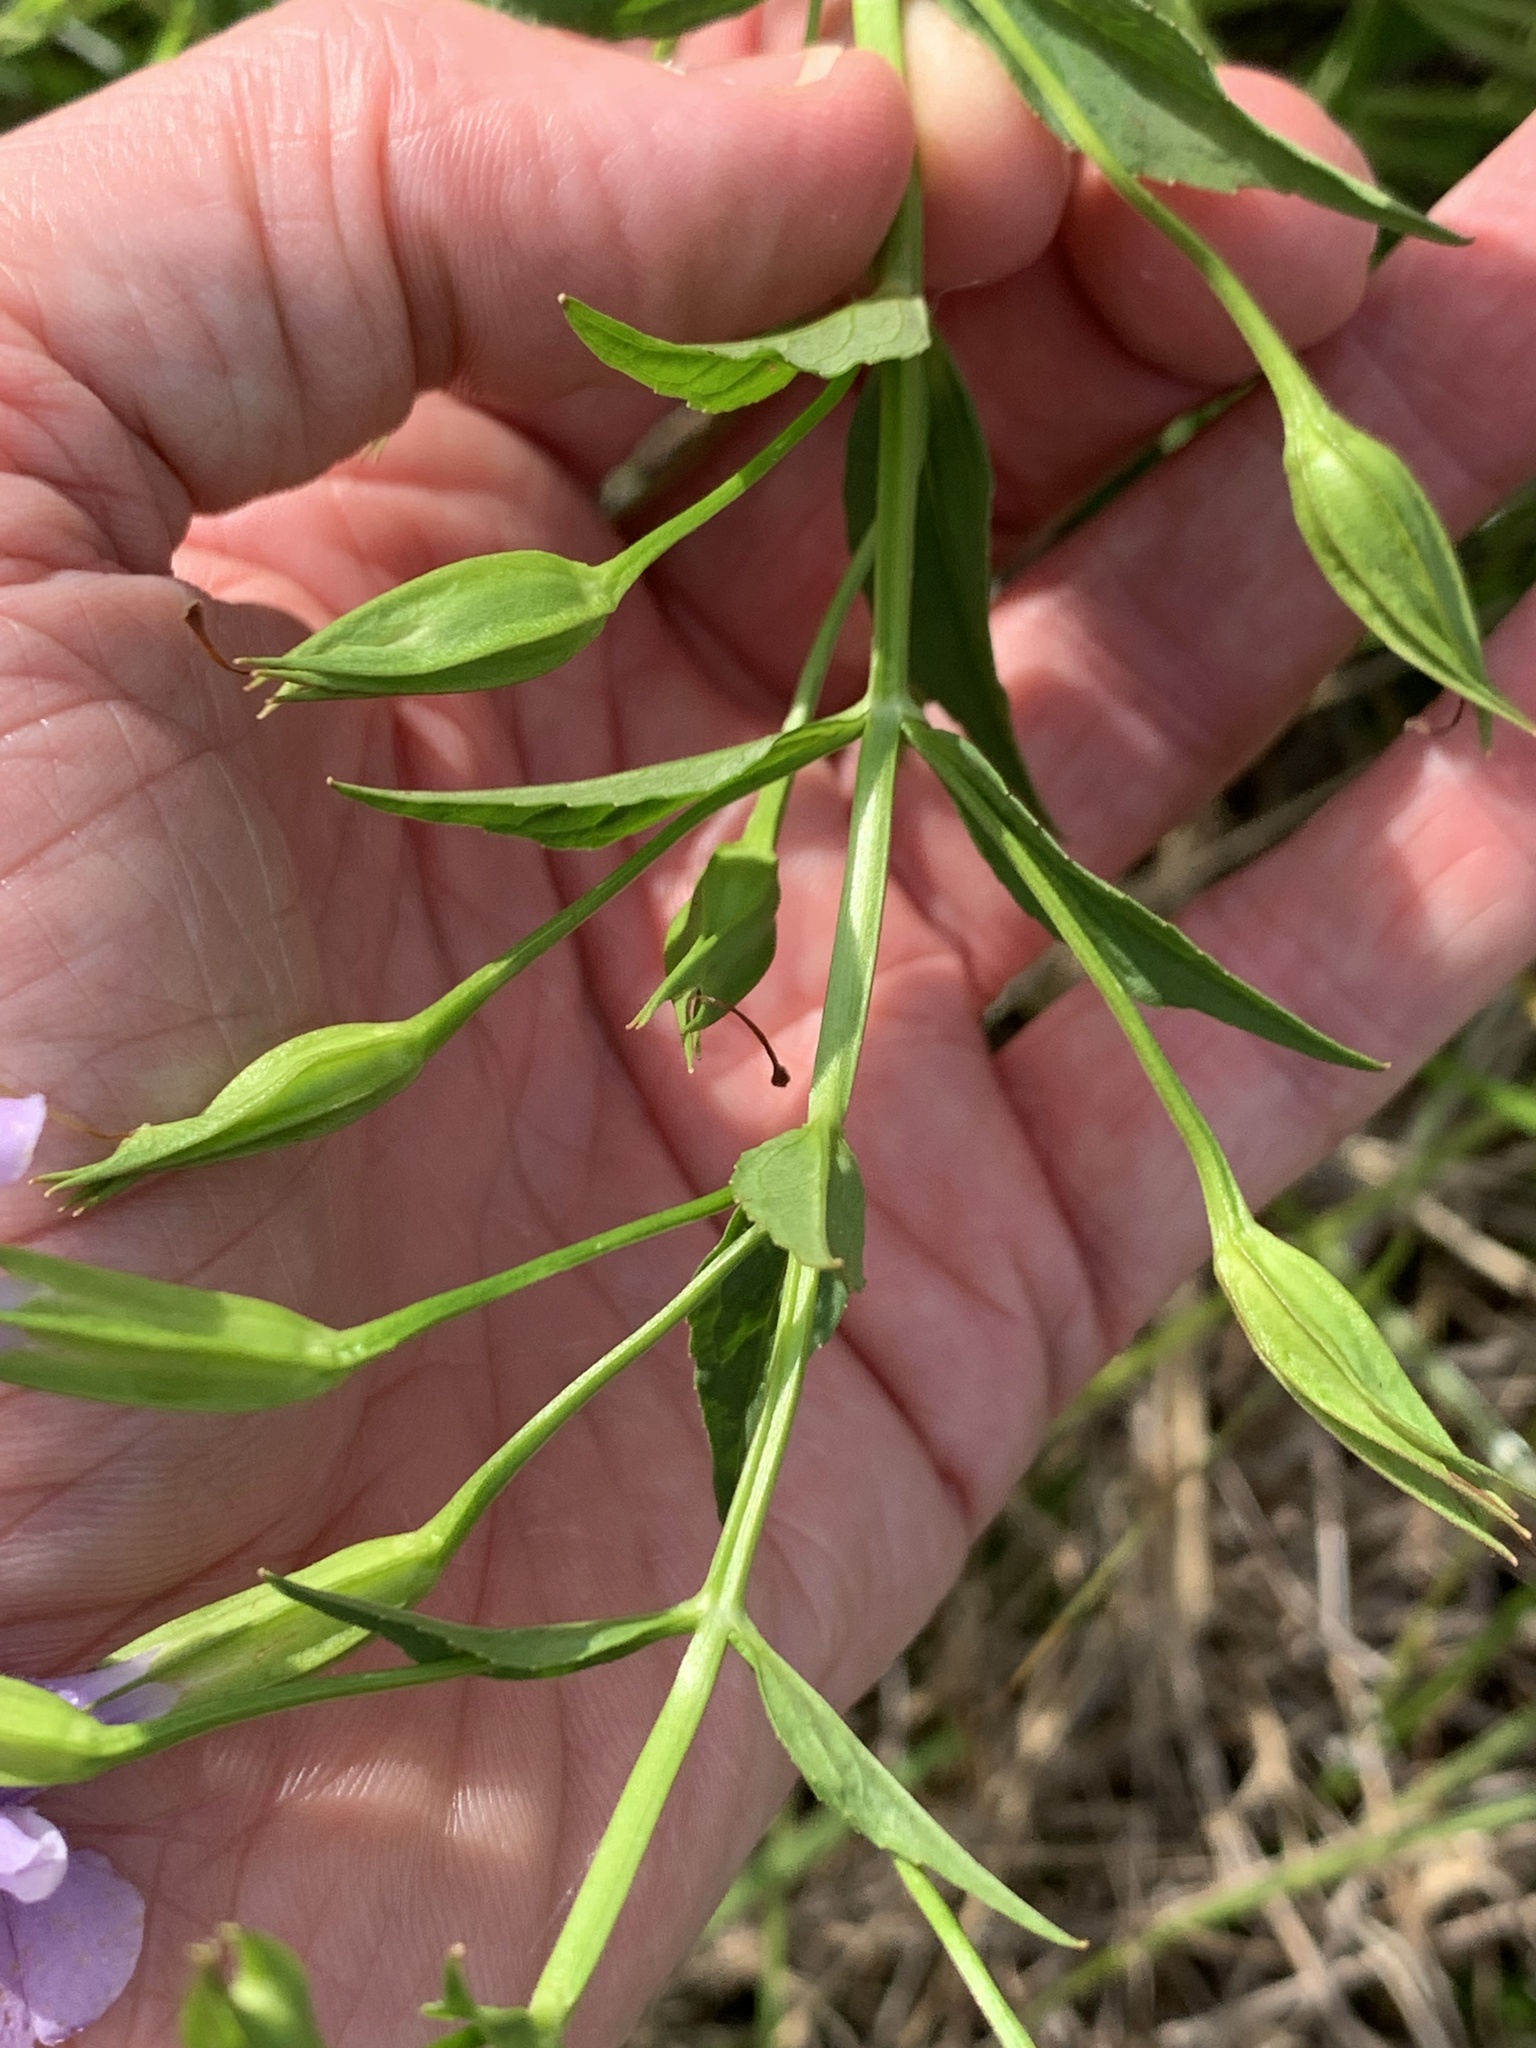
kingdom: Plantae
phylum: Tracheophyta
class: Magnoliopsida
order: Lamiales
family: Phrymaceae
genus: Mimulus
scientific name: Mimulus ringens
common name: Allegheny monkeyflower
